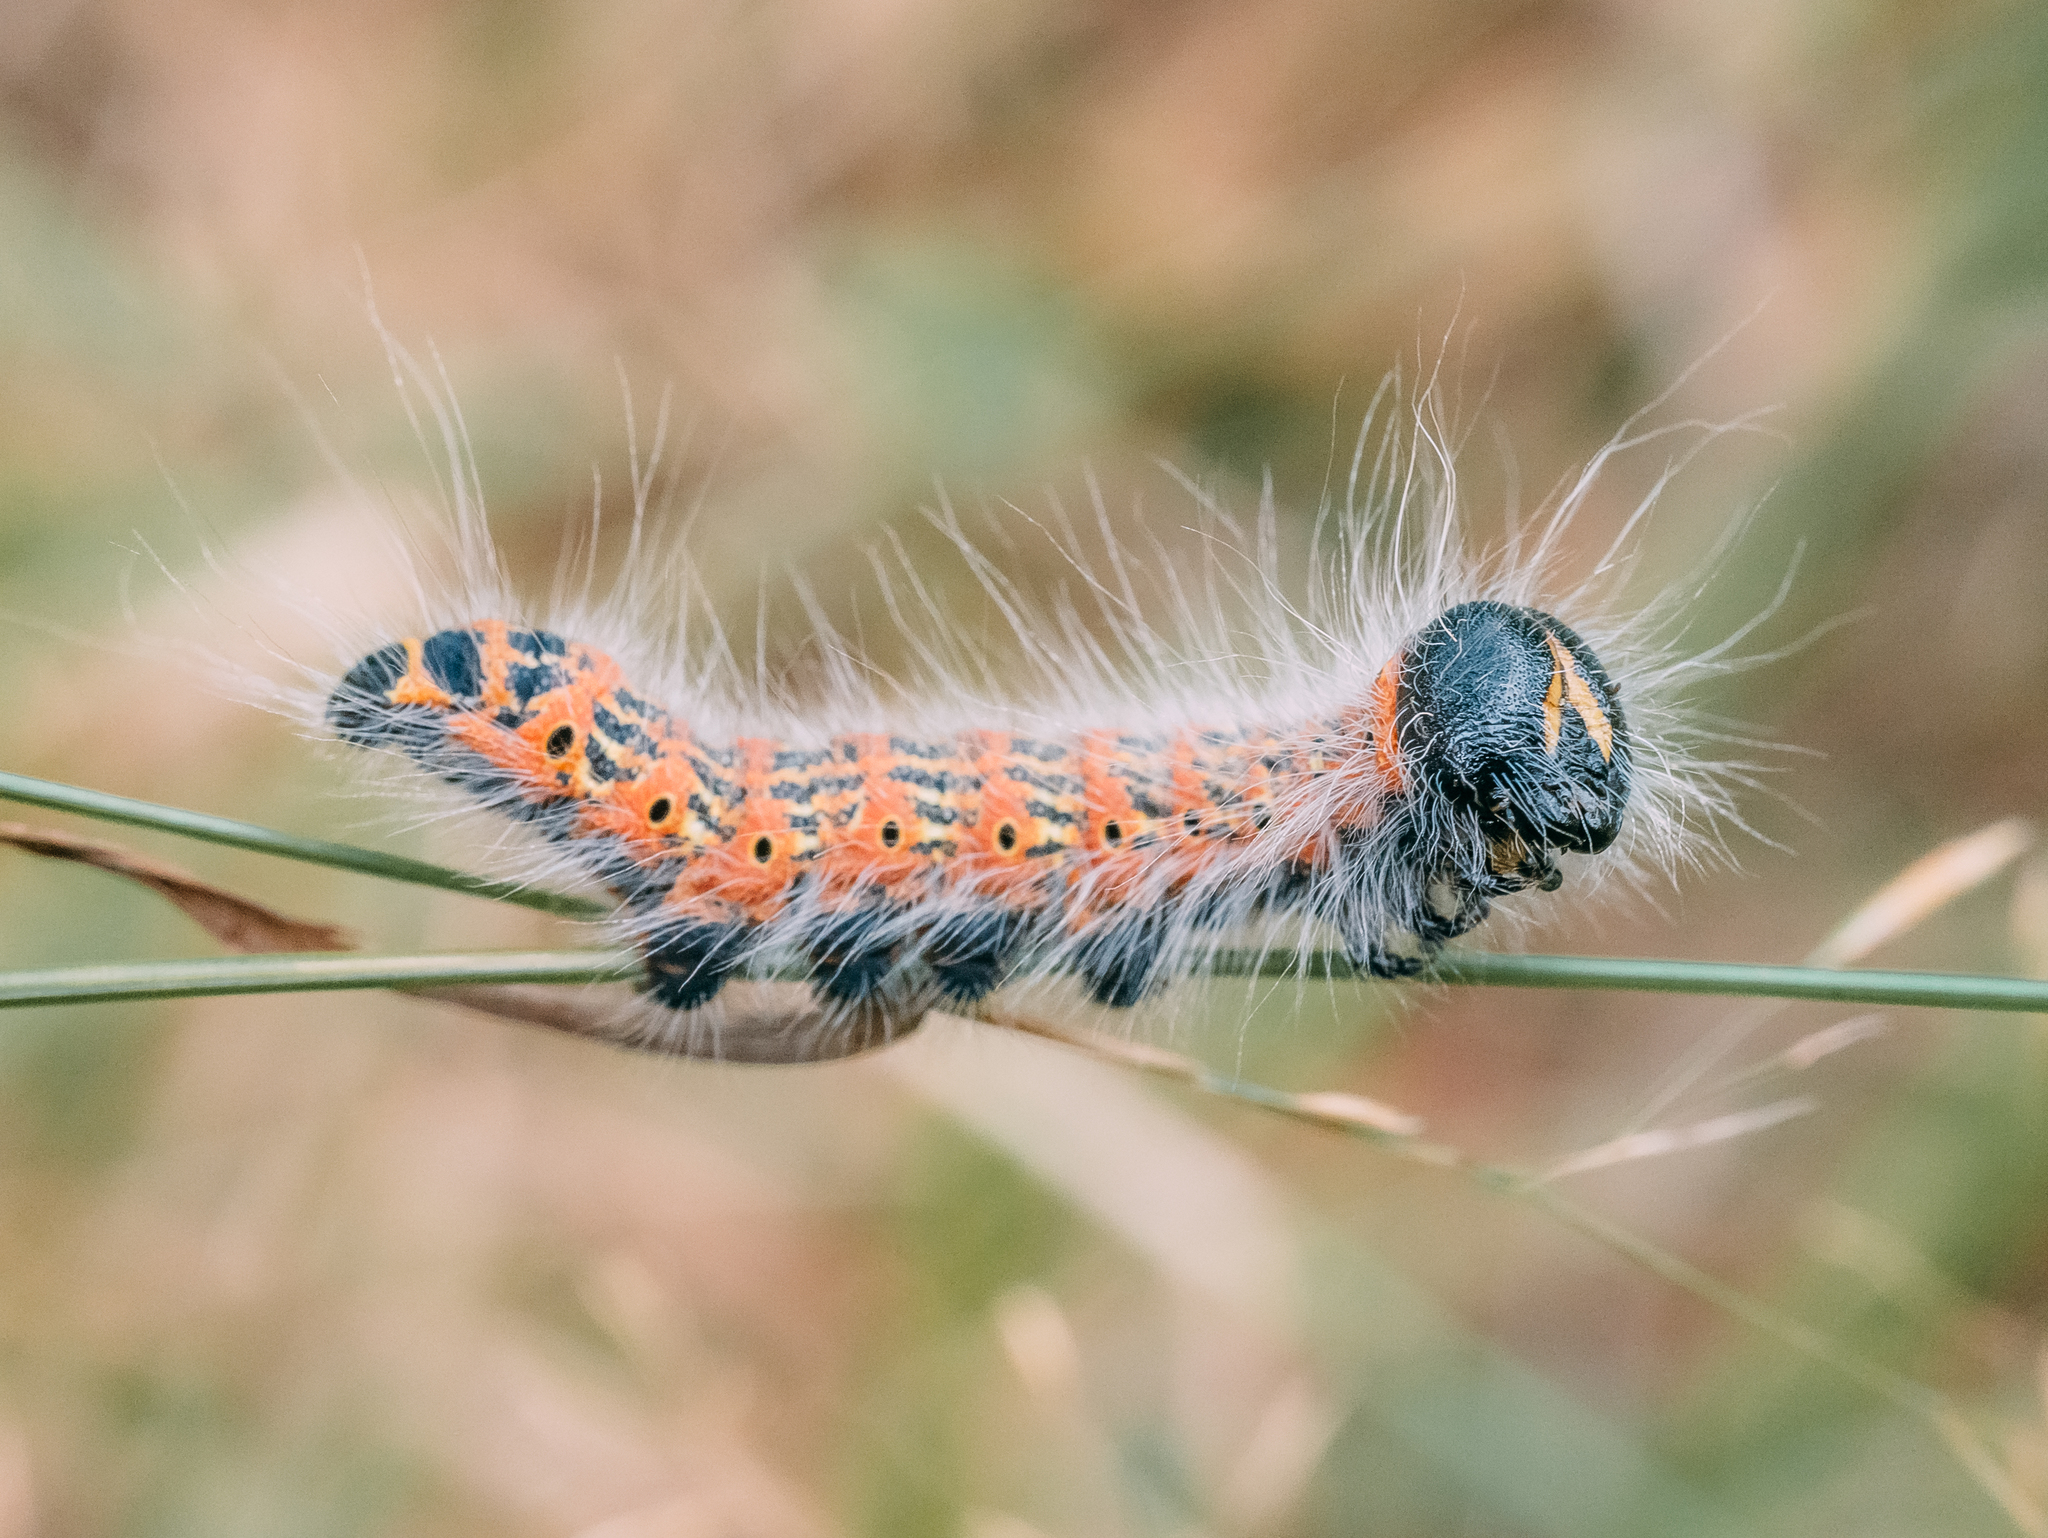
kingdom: Animalia
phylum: Arthropoda
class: Insecta
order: Lepidoptera
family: Notodontidae
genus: Phalera
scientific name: Phalera bucephala
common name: Buff-tip
